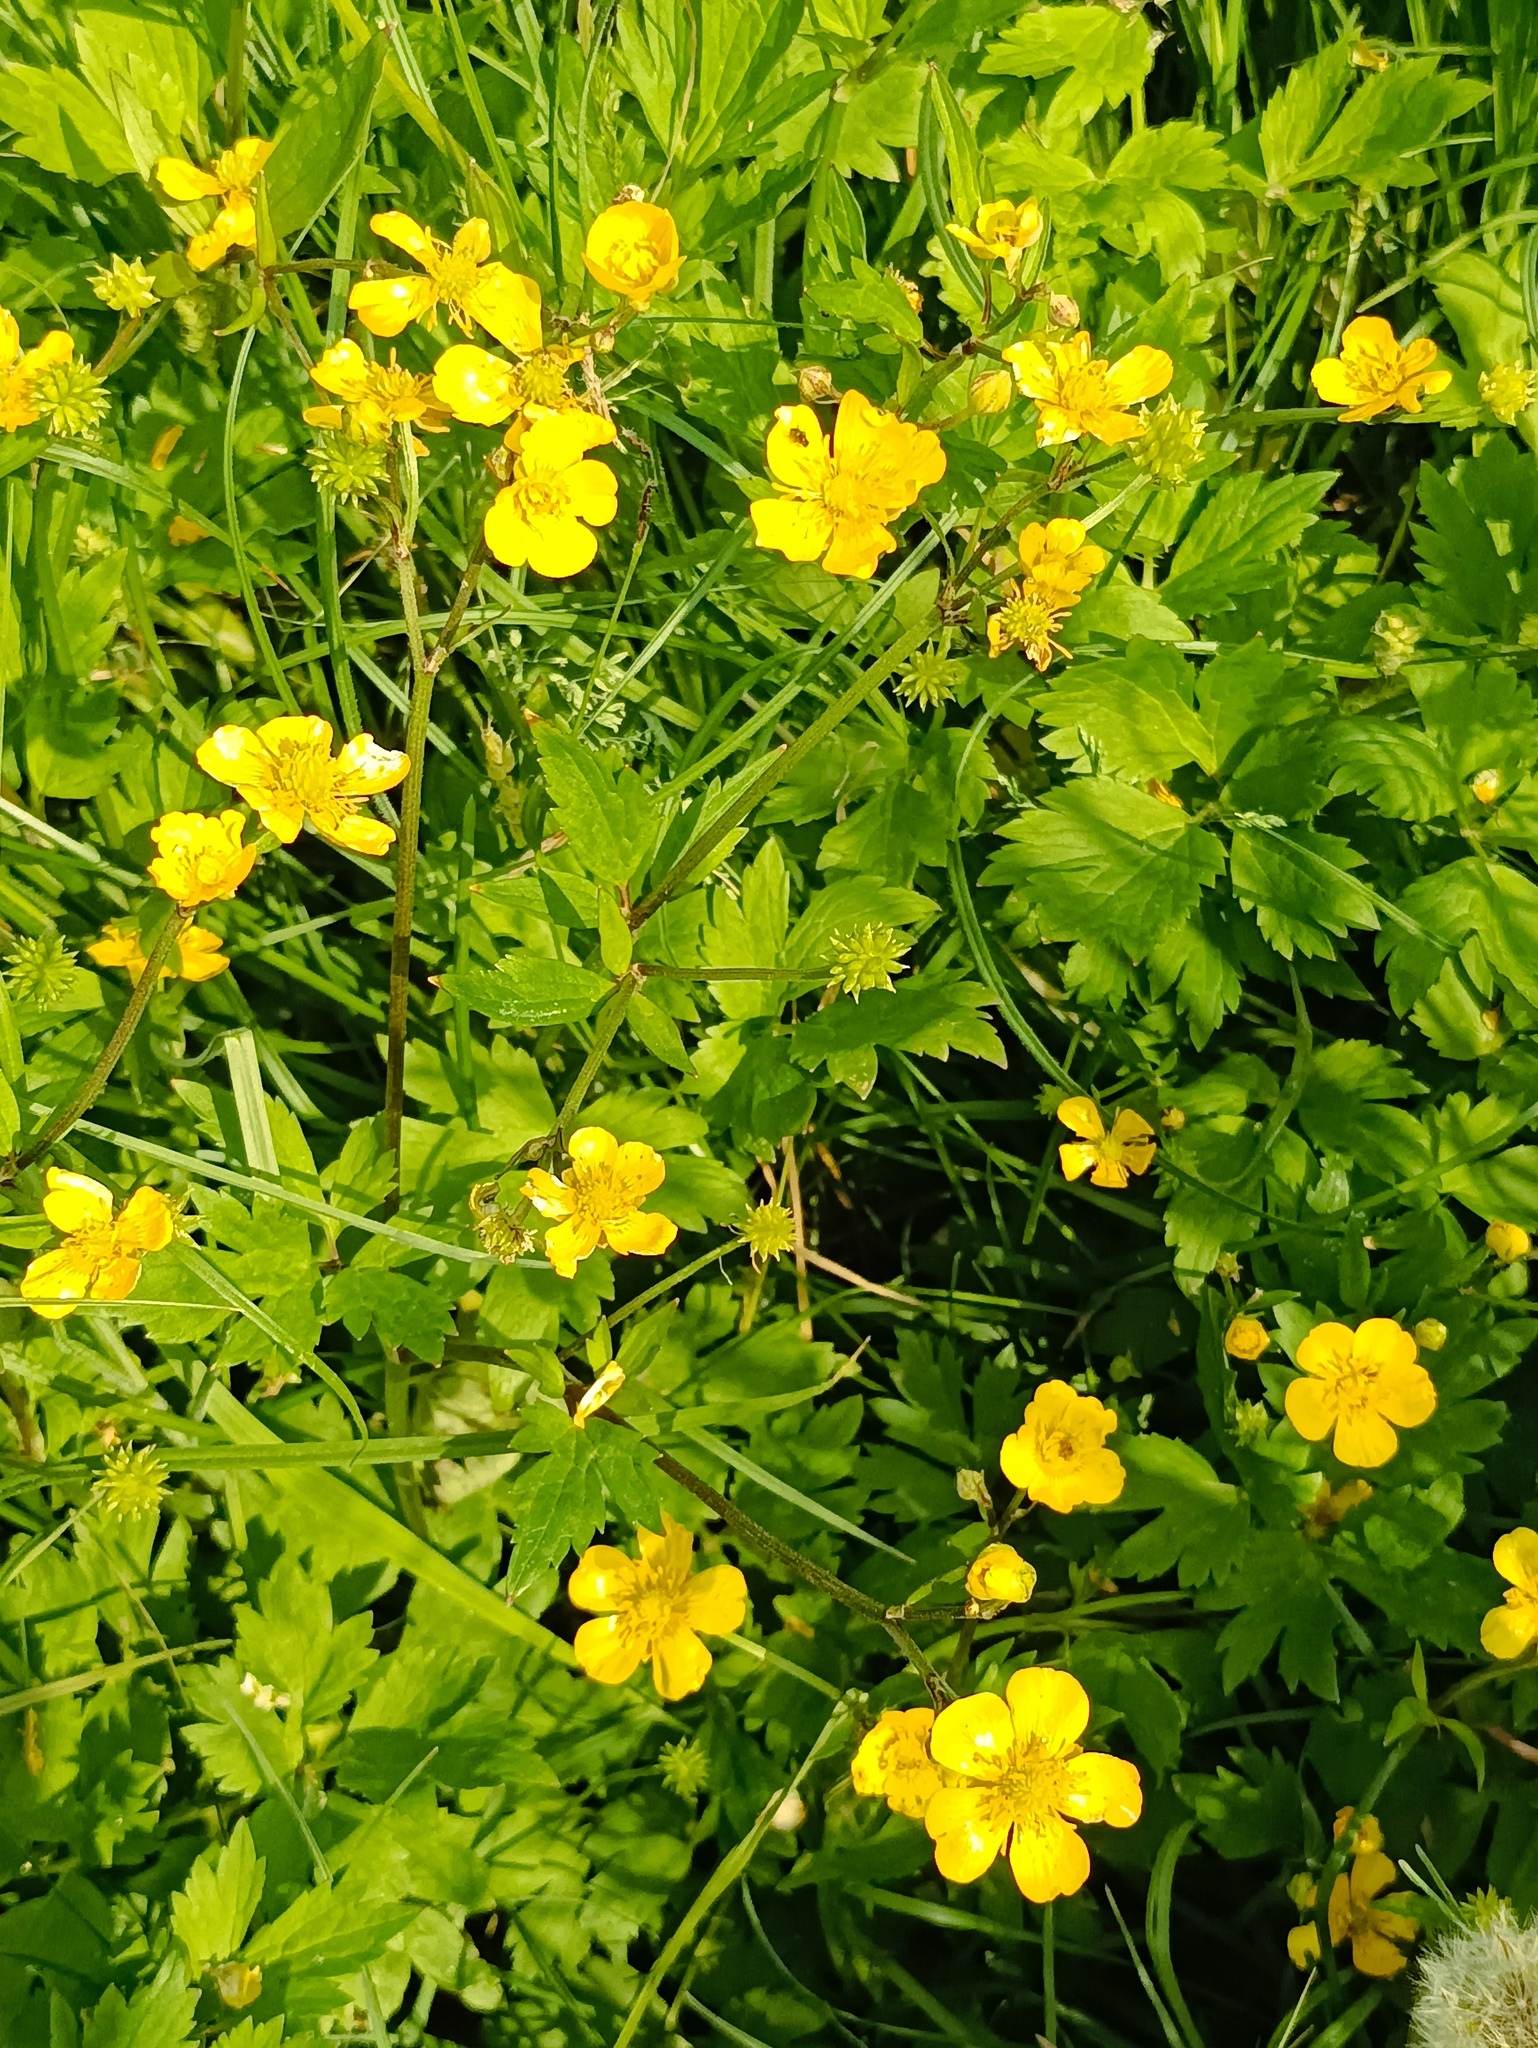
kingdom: Plantae
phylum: Tracheophyta
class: Magnoliopsida
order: Ranunculales
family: Ranunculaceae
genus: Ranunculus
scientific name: Ranunculus repens
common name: Creeping buttercup
